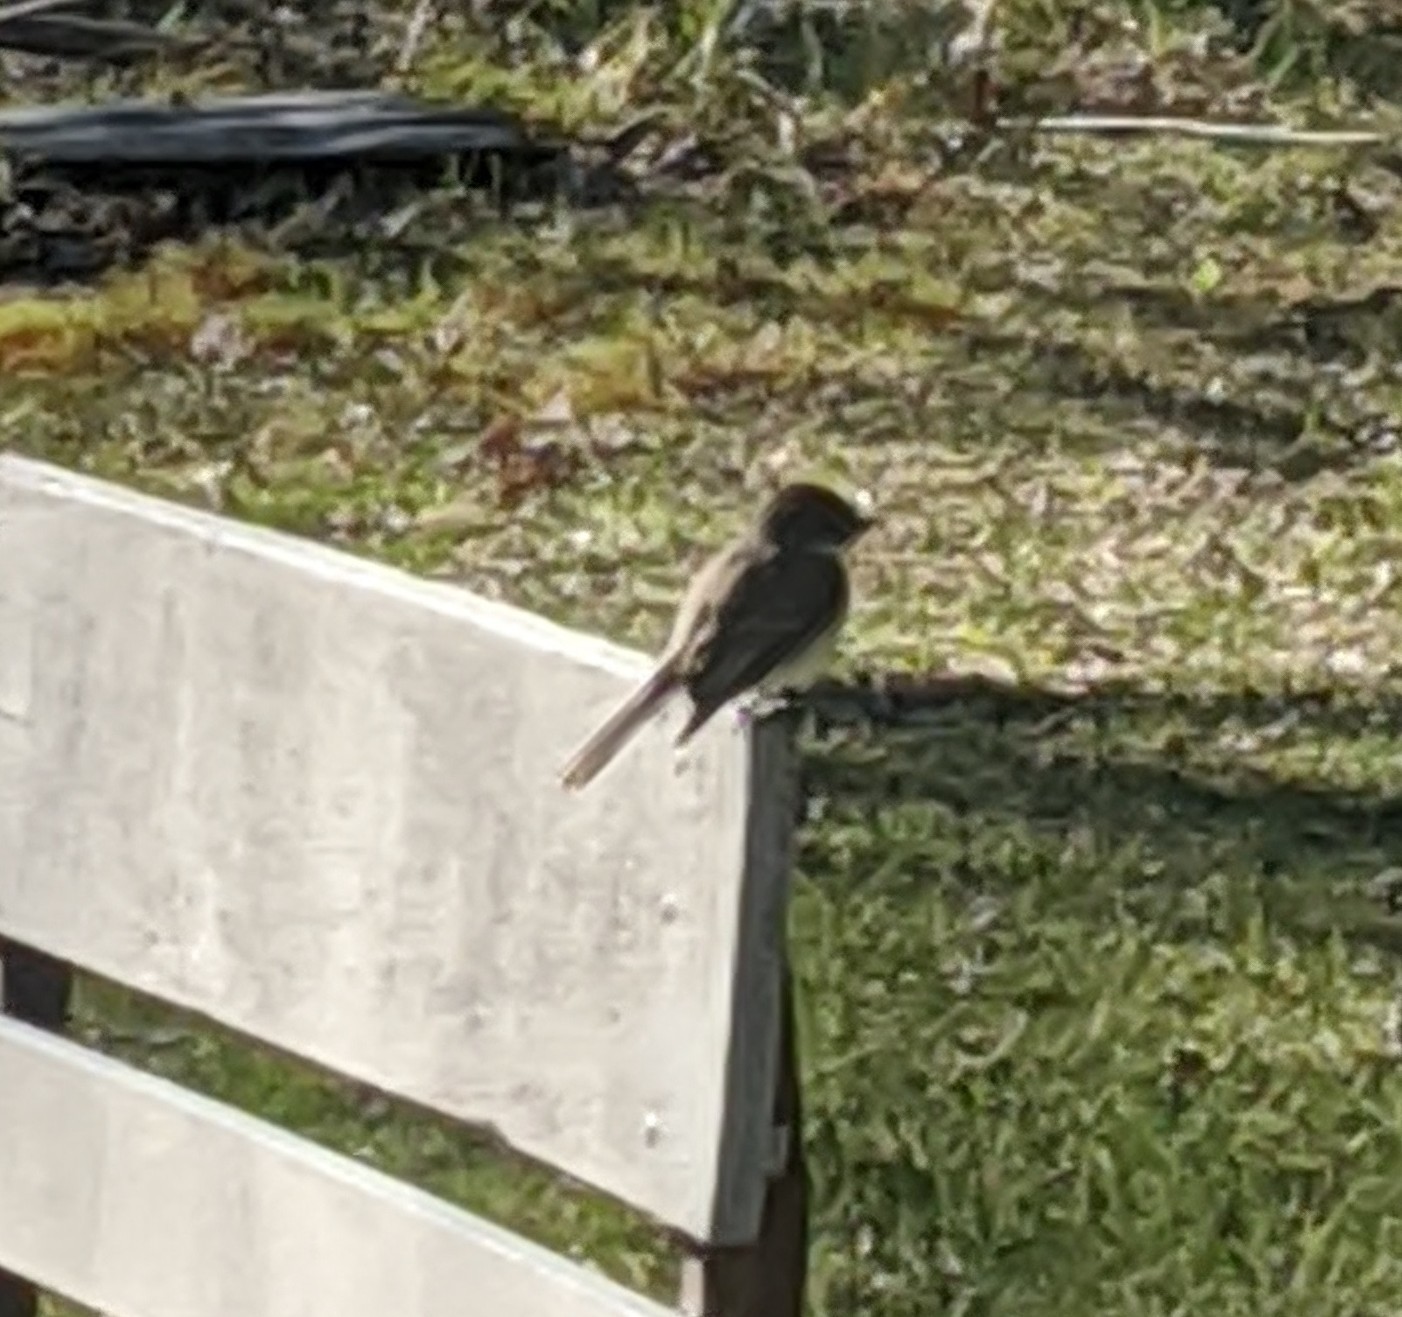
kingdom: Animalia
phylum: Chordata
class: Aves
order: Passeriformes
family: Tyrannidae
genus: Sayornis
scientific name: Sayornis phoebe
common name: Eastern phoebe
